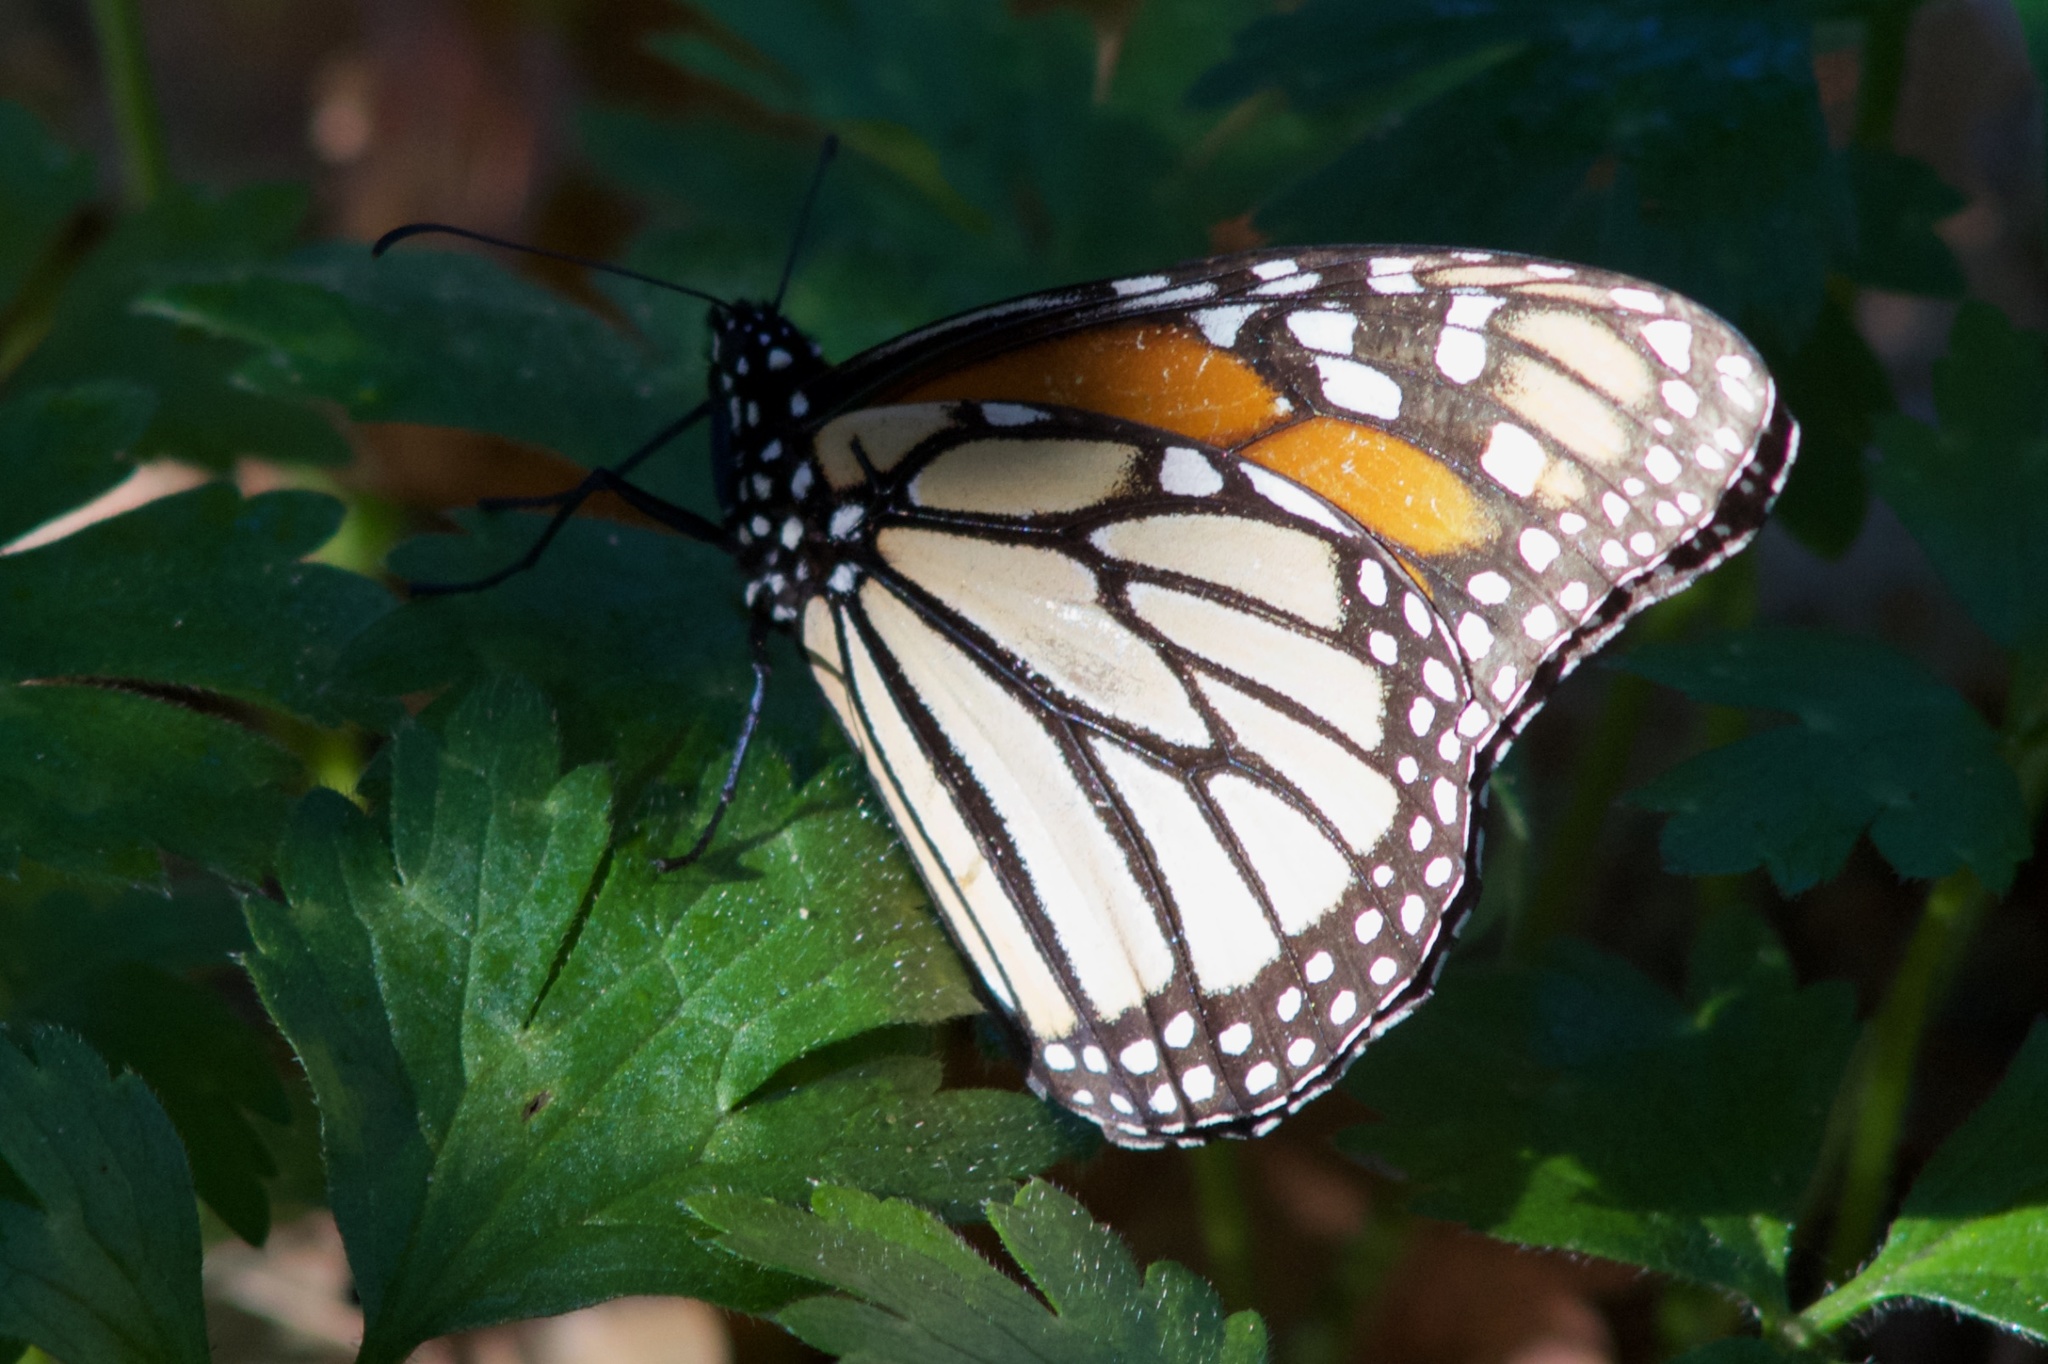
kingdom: Animalia
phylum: Arthropoda
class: Insecta
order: Lepidoptera
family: Nymphalidae
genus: Danaus
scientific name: Danaus plexippus
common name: Monarch
